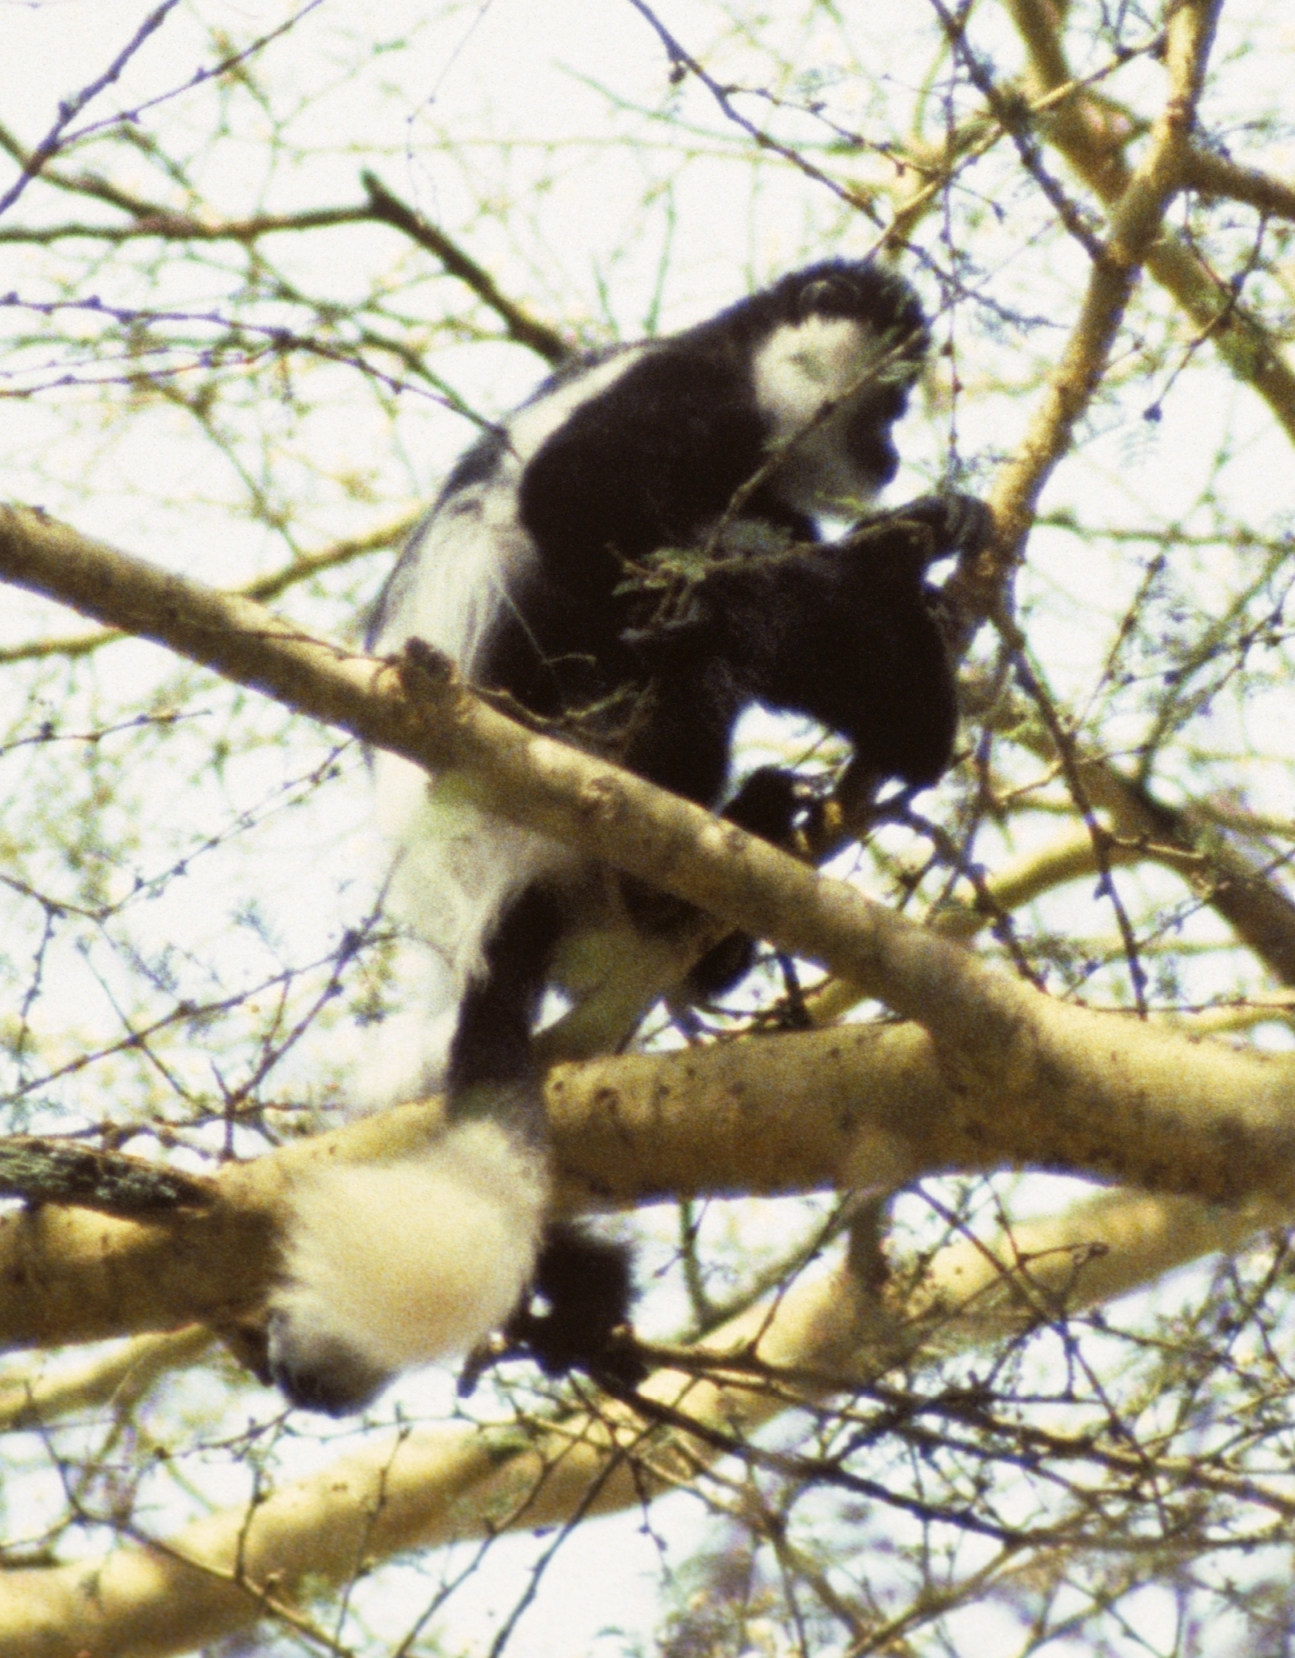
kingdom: Animalia
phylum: Chordata
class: Mammalia
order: Primates
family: Cercopithecidae
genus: Colobus
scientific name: Colobus guereza
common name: Mantled guereza
